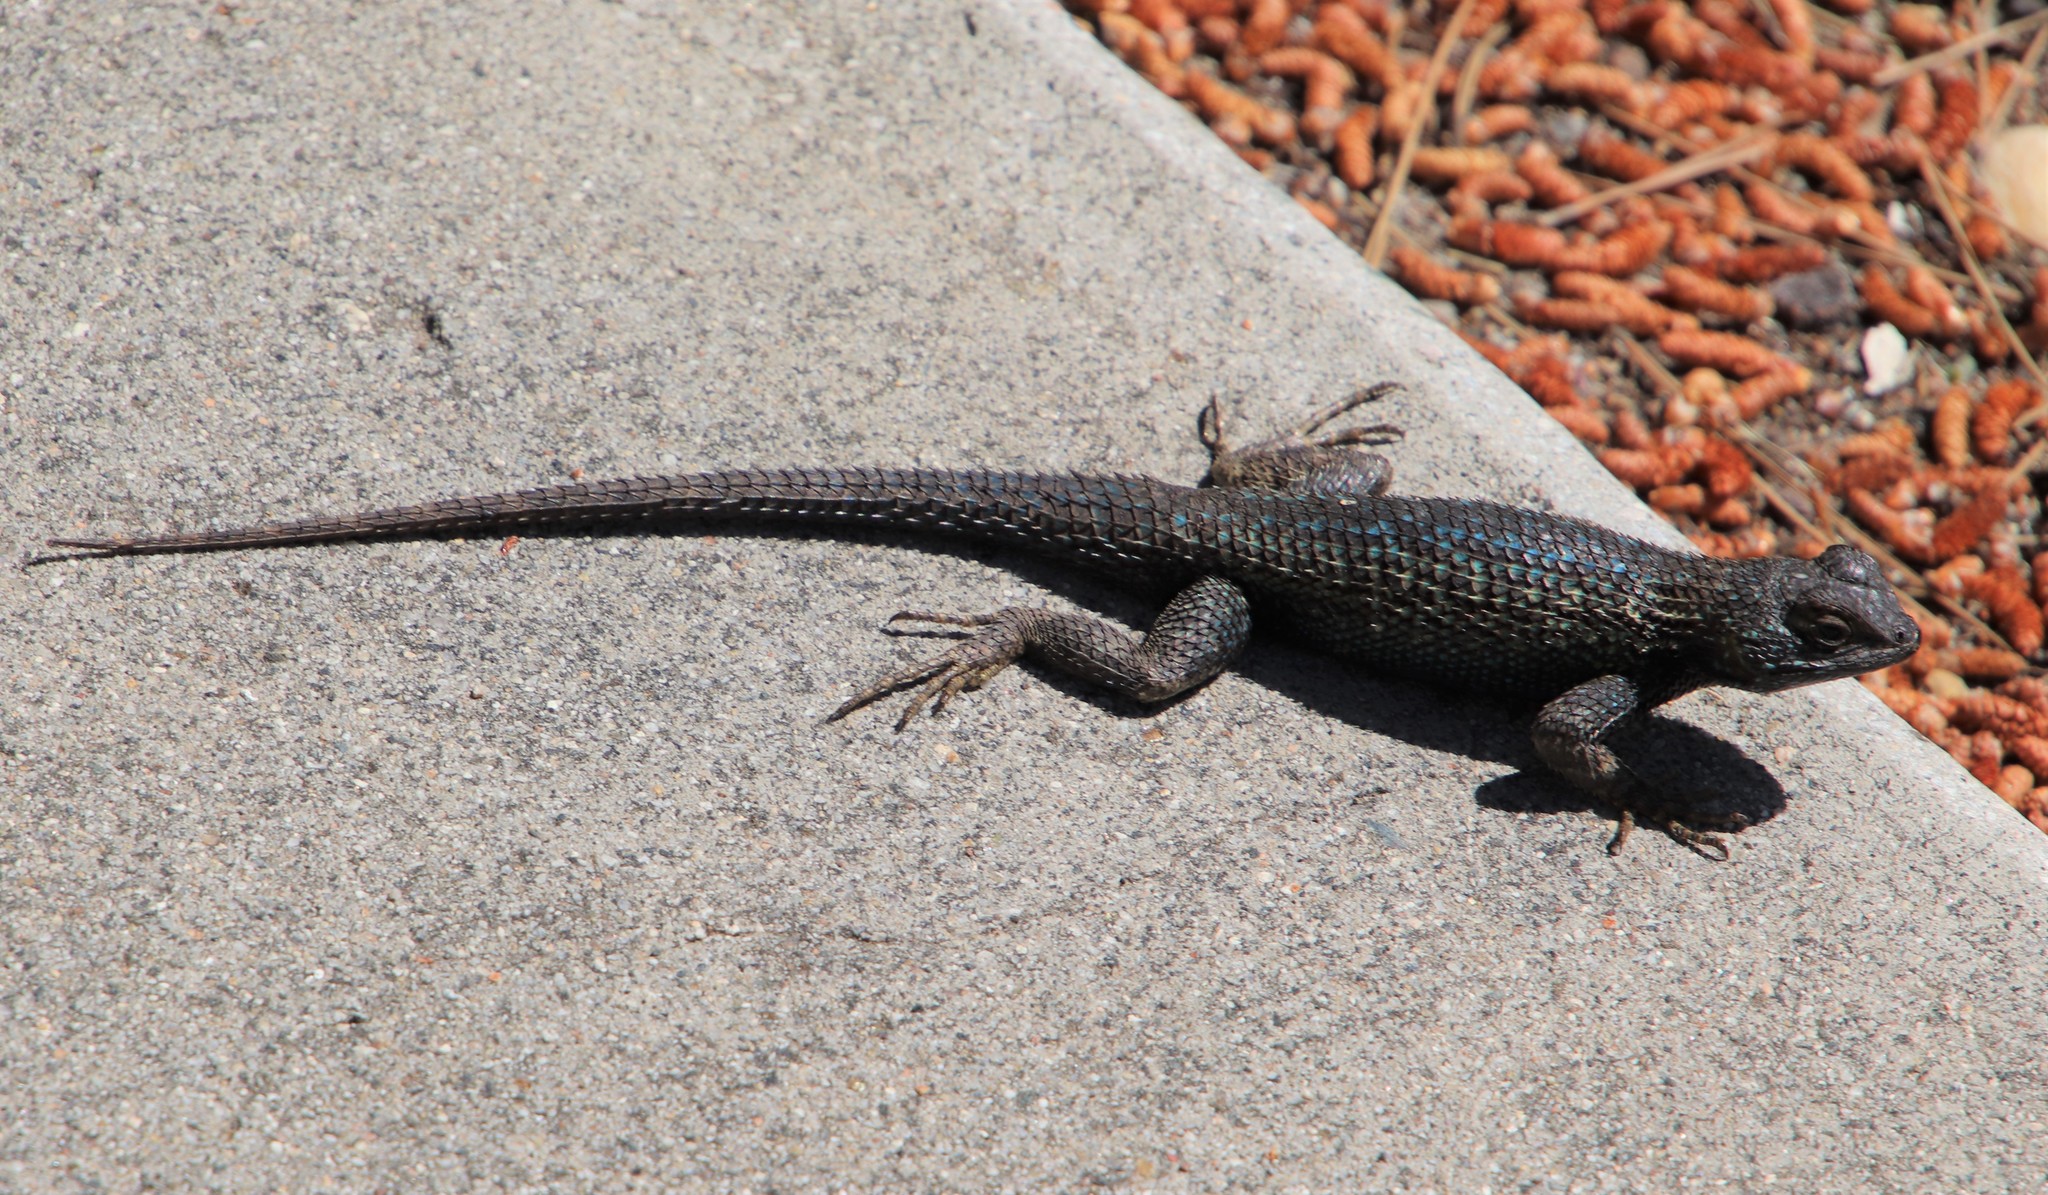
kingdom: Animalia
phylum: Chordata
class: Squamata
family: Phrynosomatidae
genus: Sceloporus
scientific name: Sceloporus occidentalis
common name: Western fence lizard
